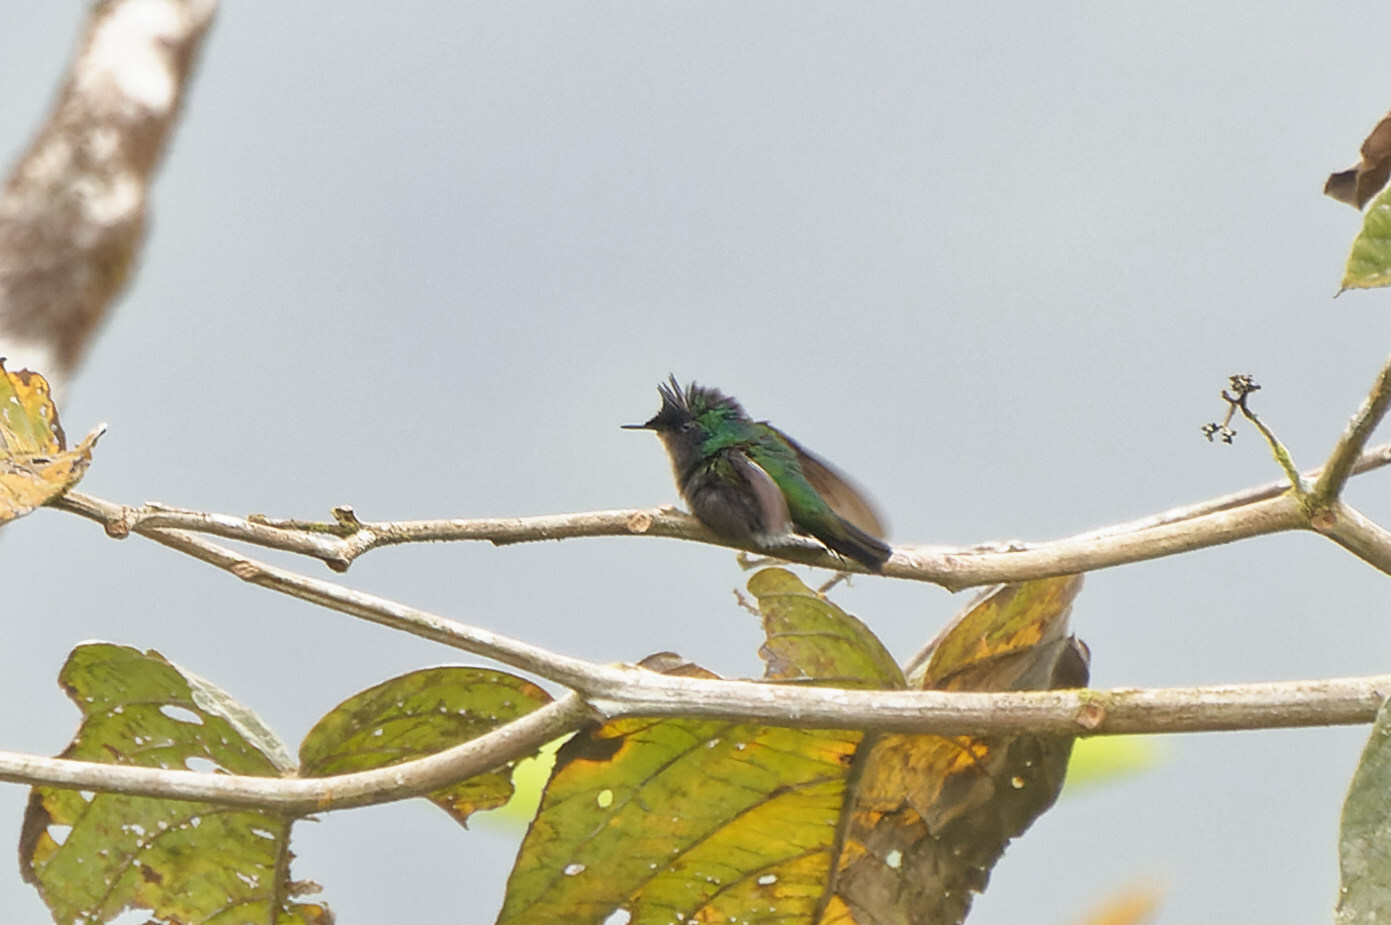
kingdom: Animalia
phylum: Chordata
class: Aves
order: Apodiformes
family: Trochilidae
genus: Orthorhyncus
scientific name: Orthorhyncus cristatus
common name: Antillean crested hummingbird
